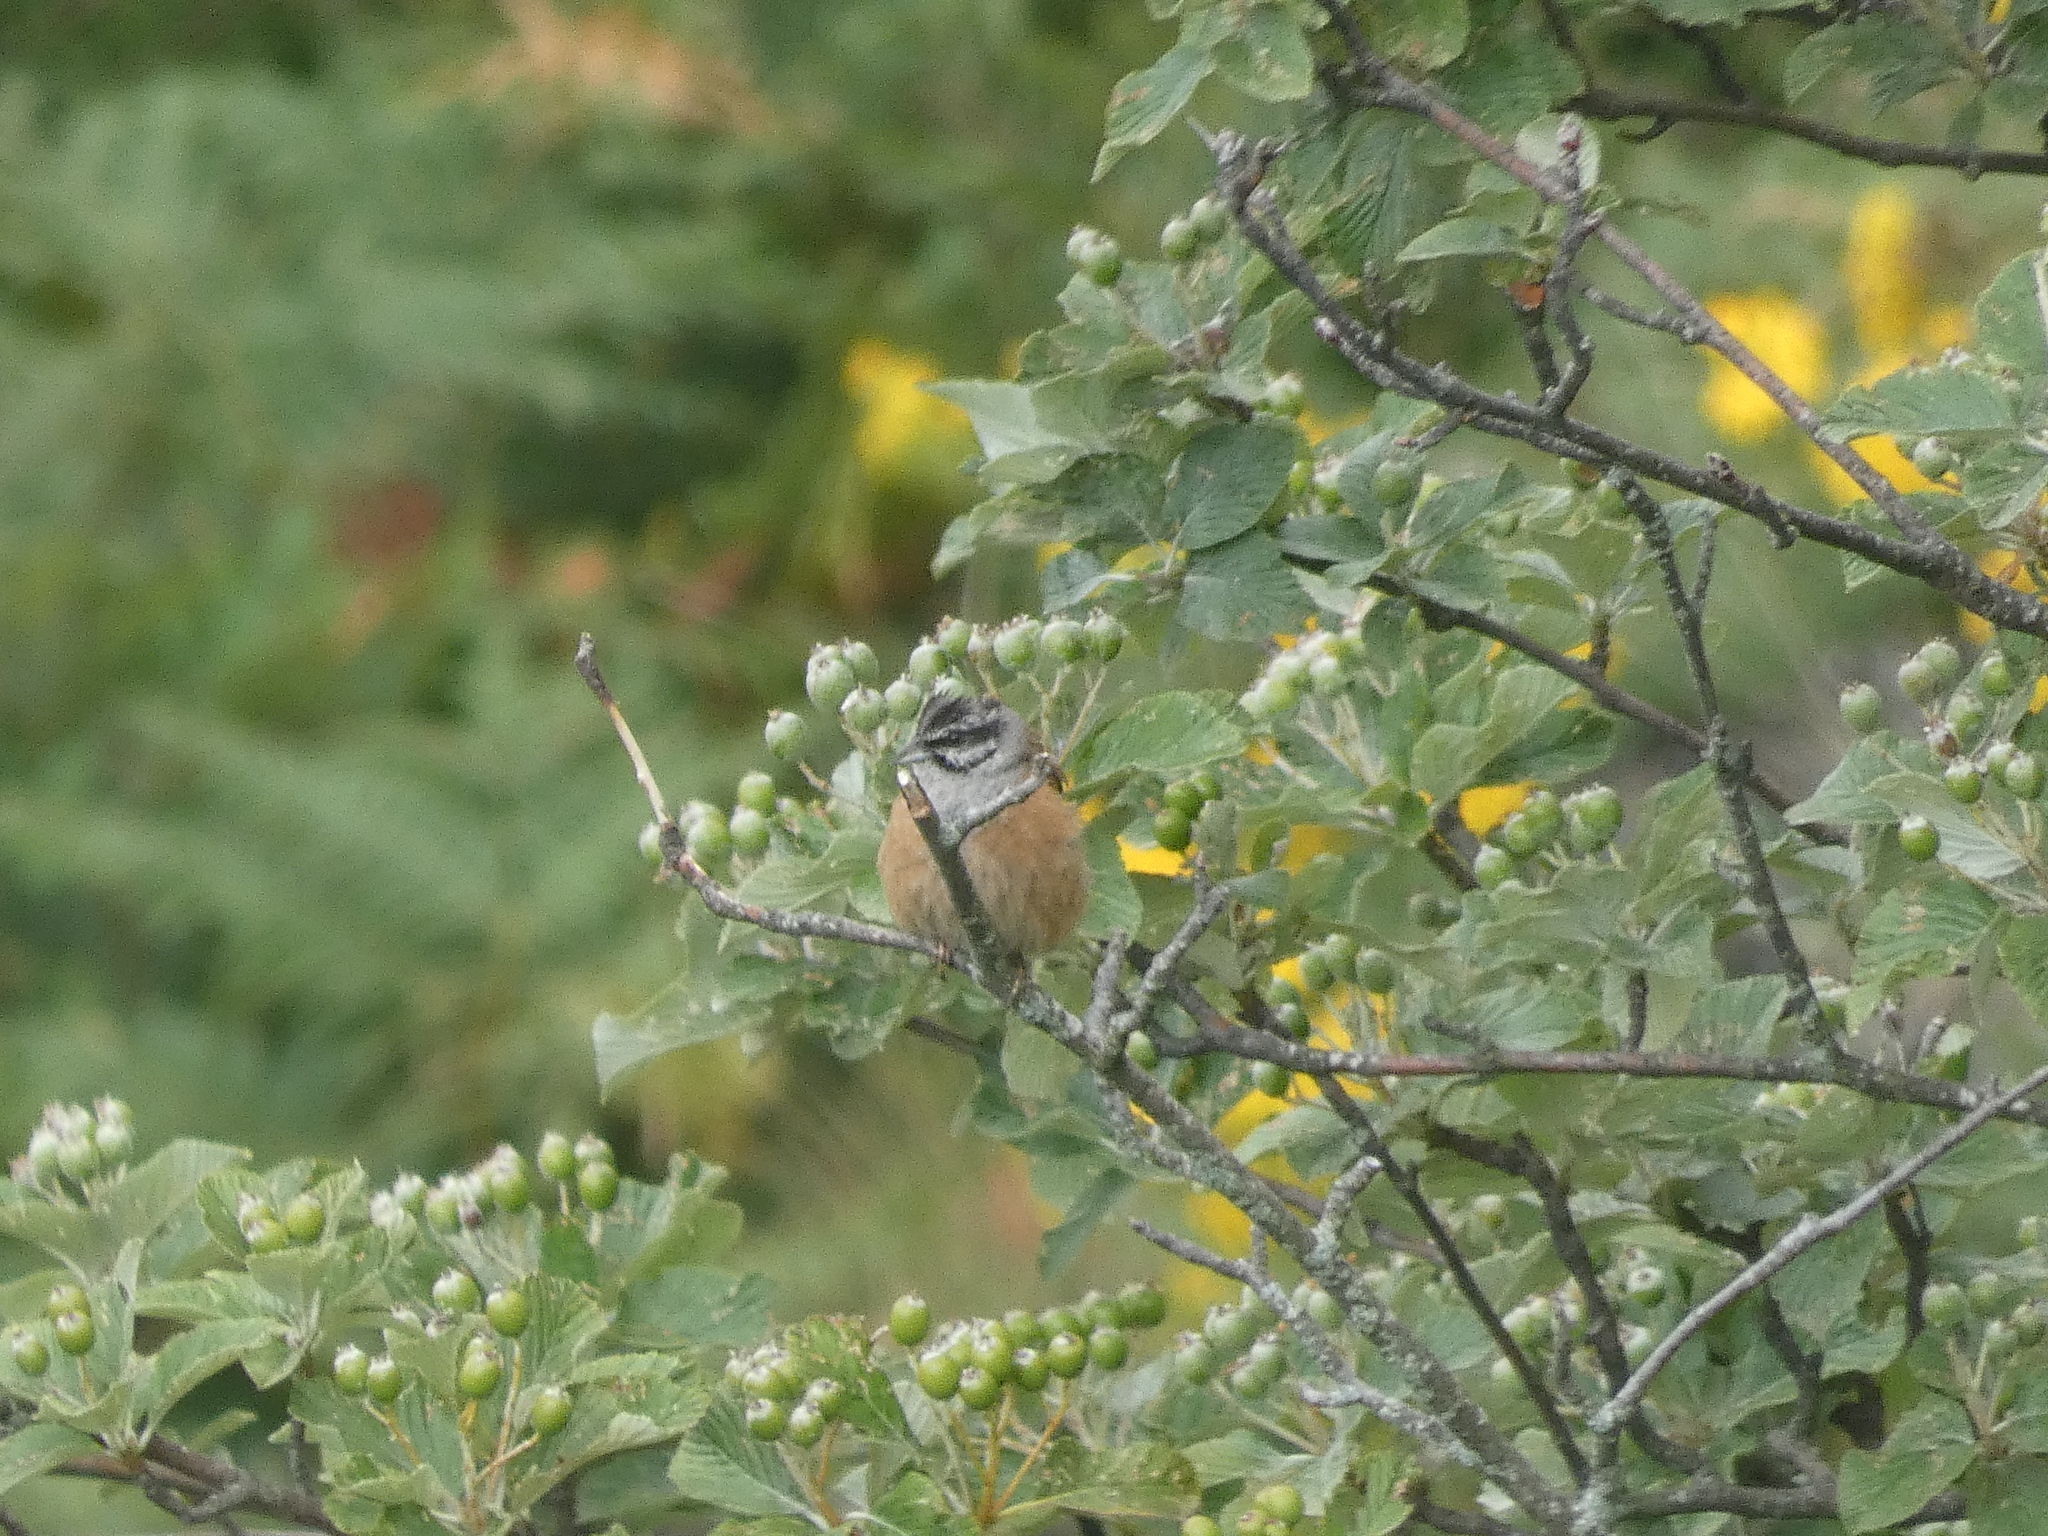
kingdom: Animalia
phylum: Chordata
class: Aves
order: Passeriformes
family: Emberizidae
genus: Emberiza
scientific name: Emberiza cia
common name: Rock bunting
